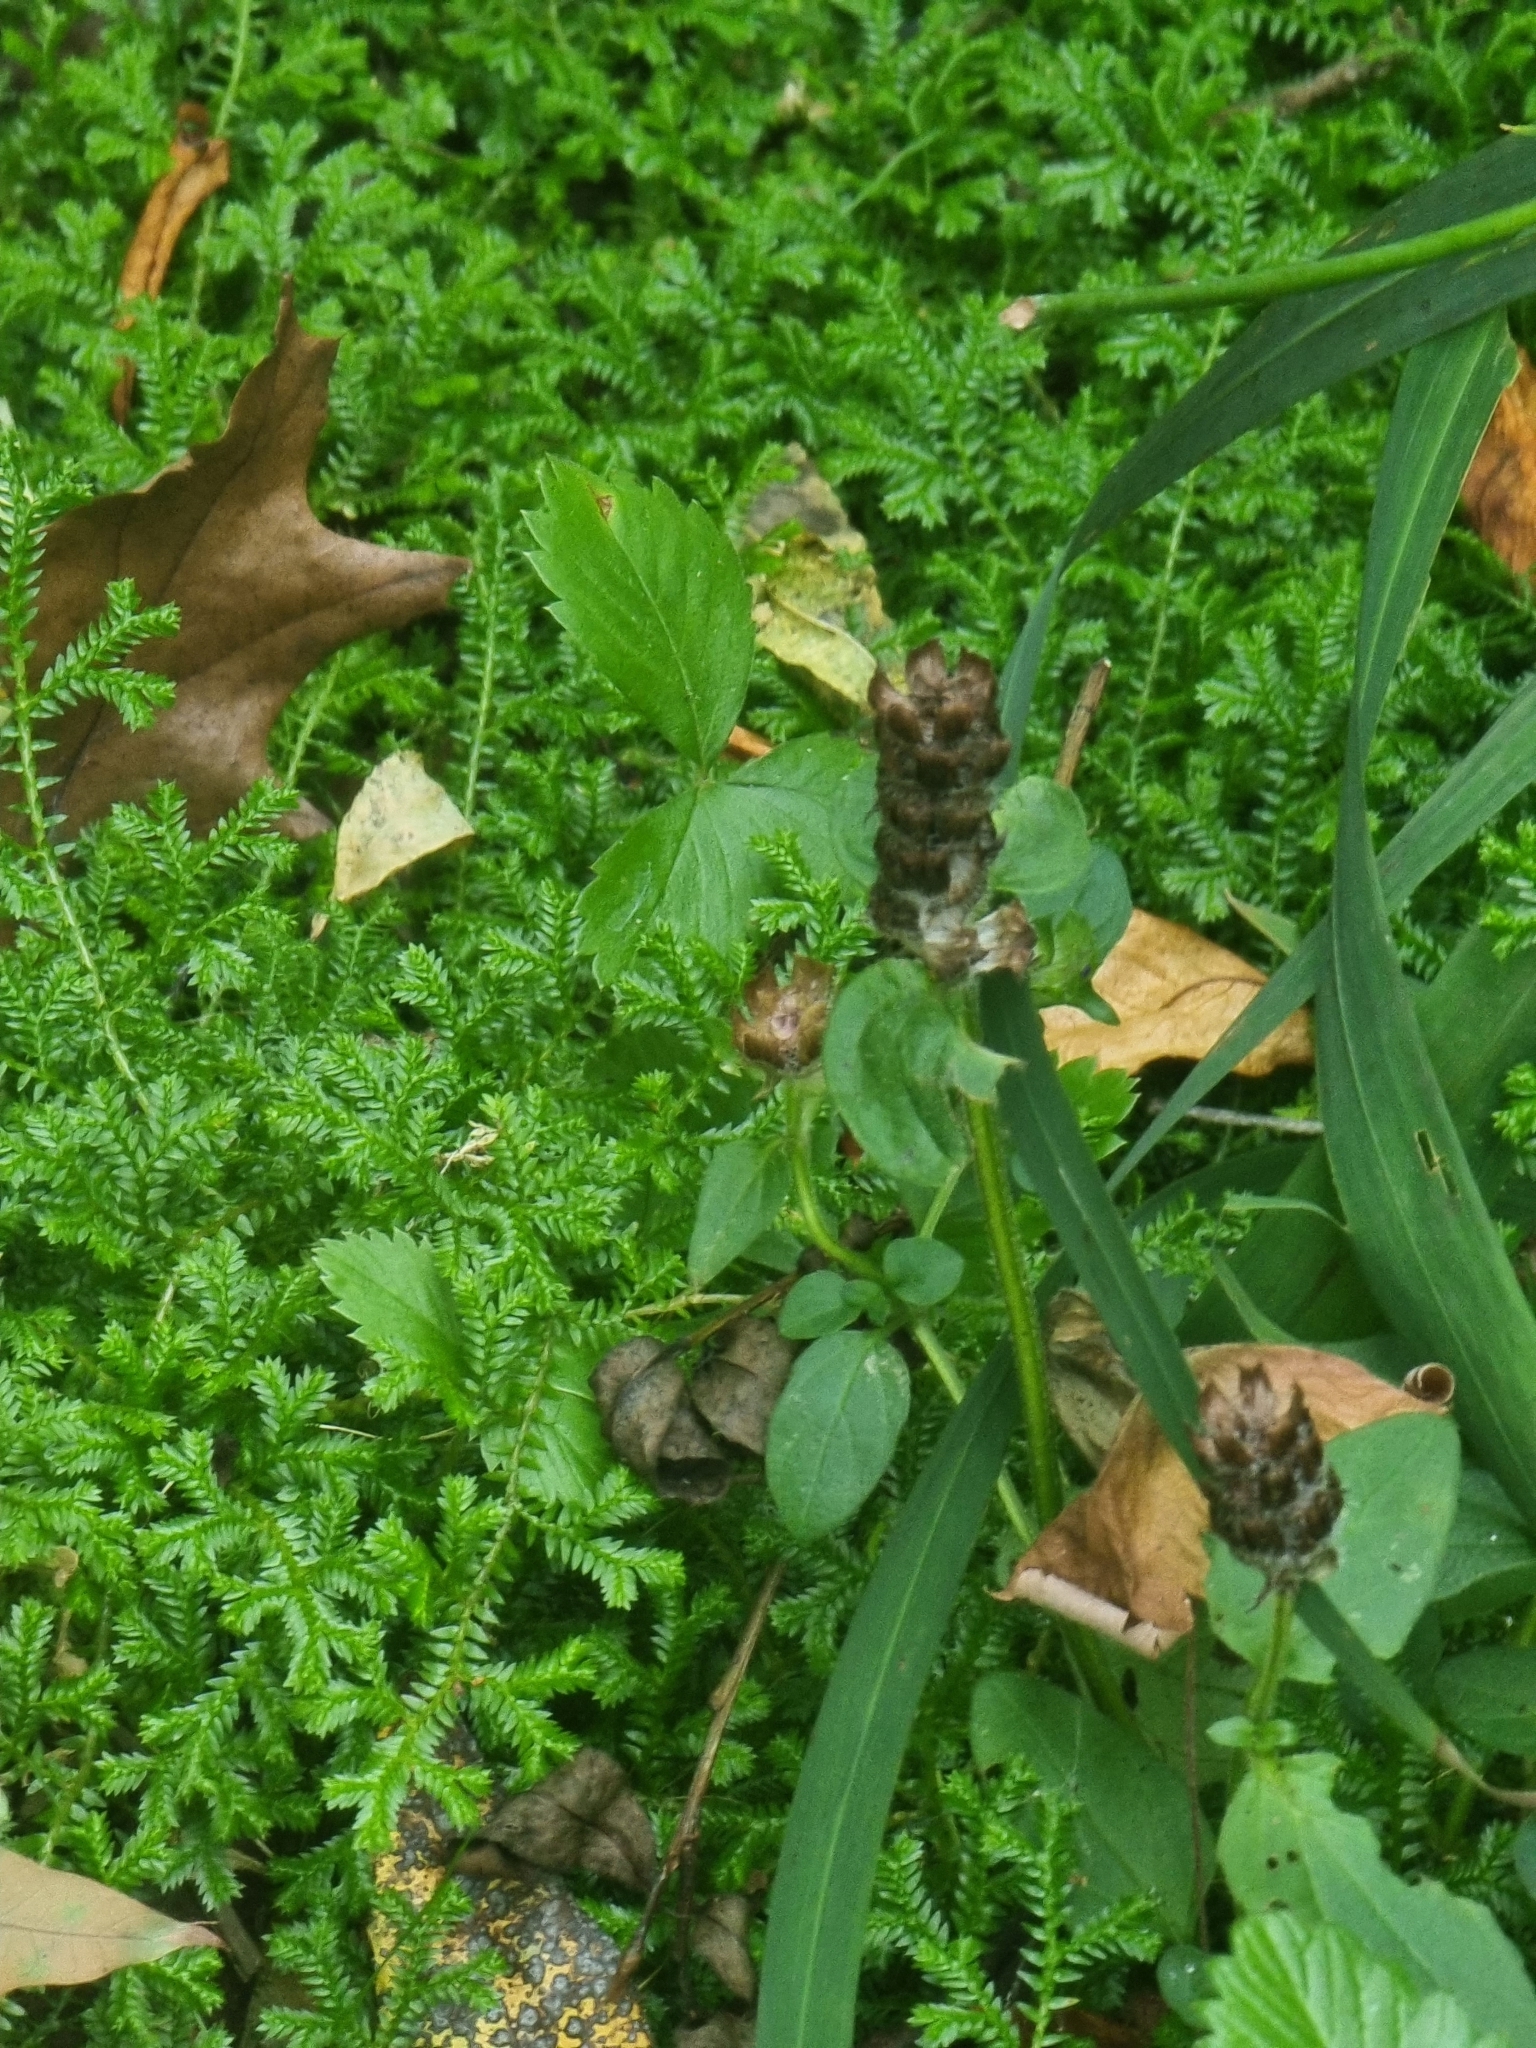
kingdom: Plantae
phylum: Tracheophyta
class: Magnoliopsida
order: Lamiales
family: Lamiaceae
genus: Prunella
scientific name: Prunella vulgaris
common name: Heal-all
